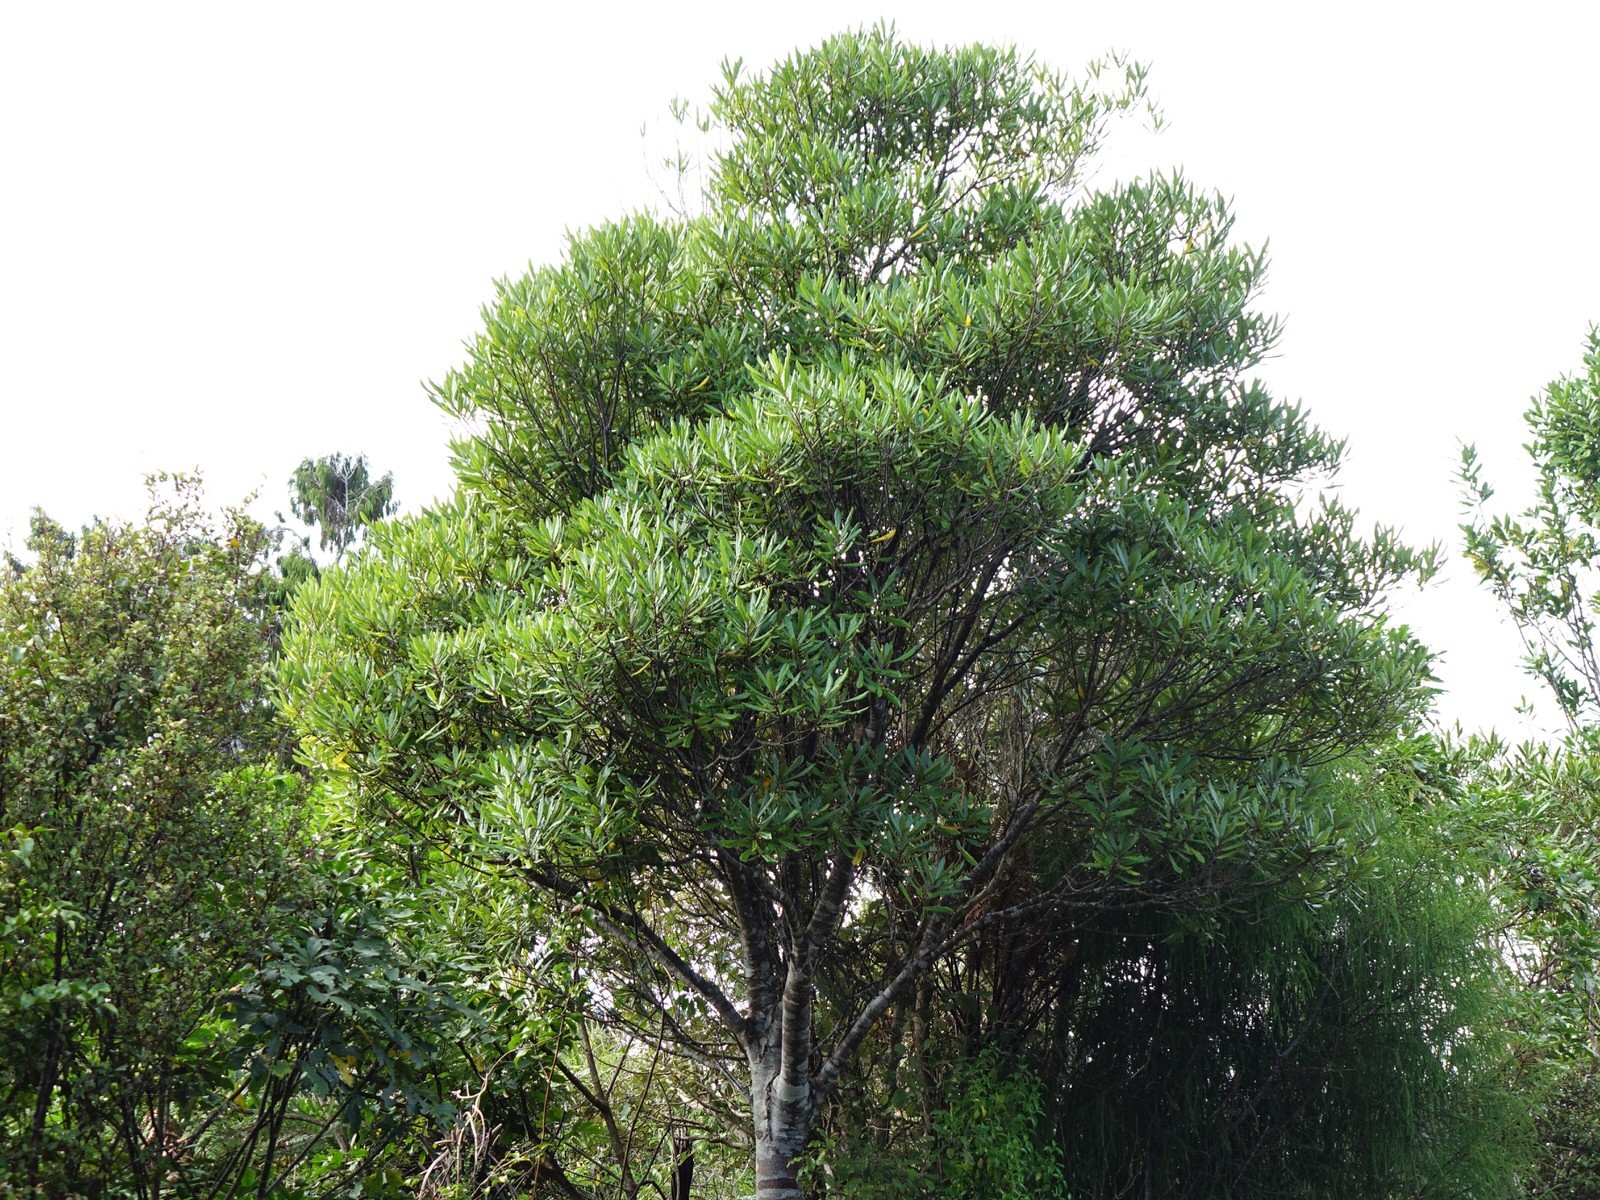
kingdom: Plantae
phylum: Tracheophyta
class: Magnoliopsida
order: Oxalidales
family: Elaeocarpaceae
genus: Elaeocarpus
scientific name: Elaeocarpus dentatus
